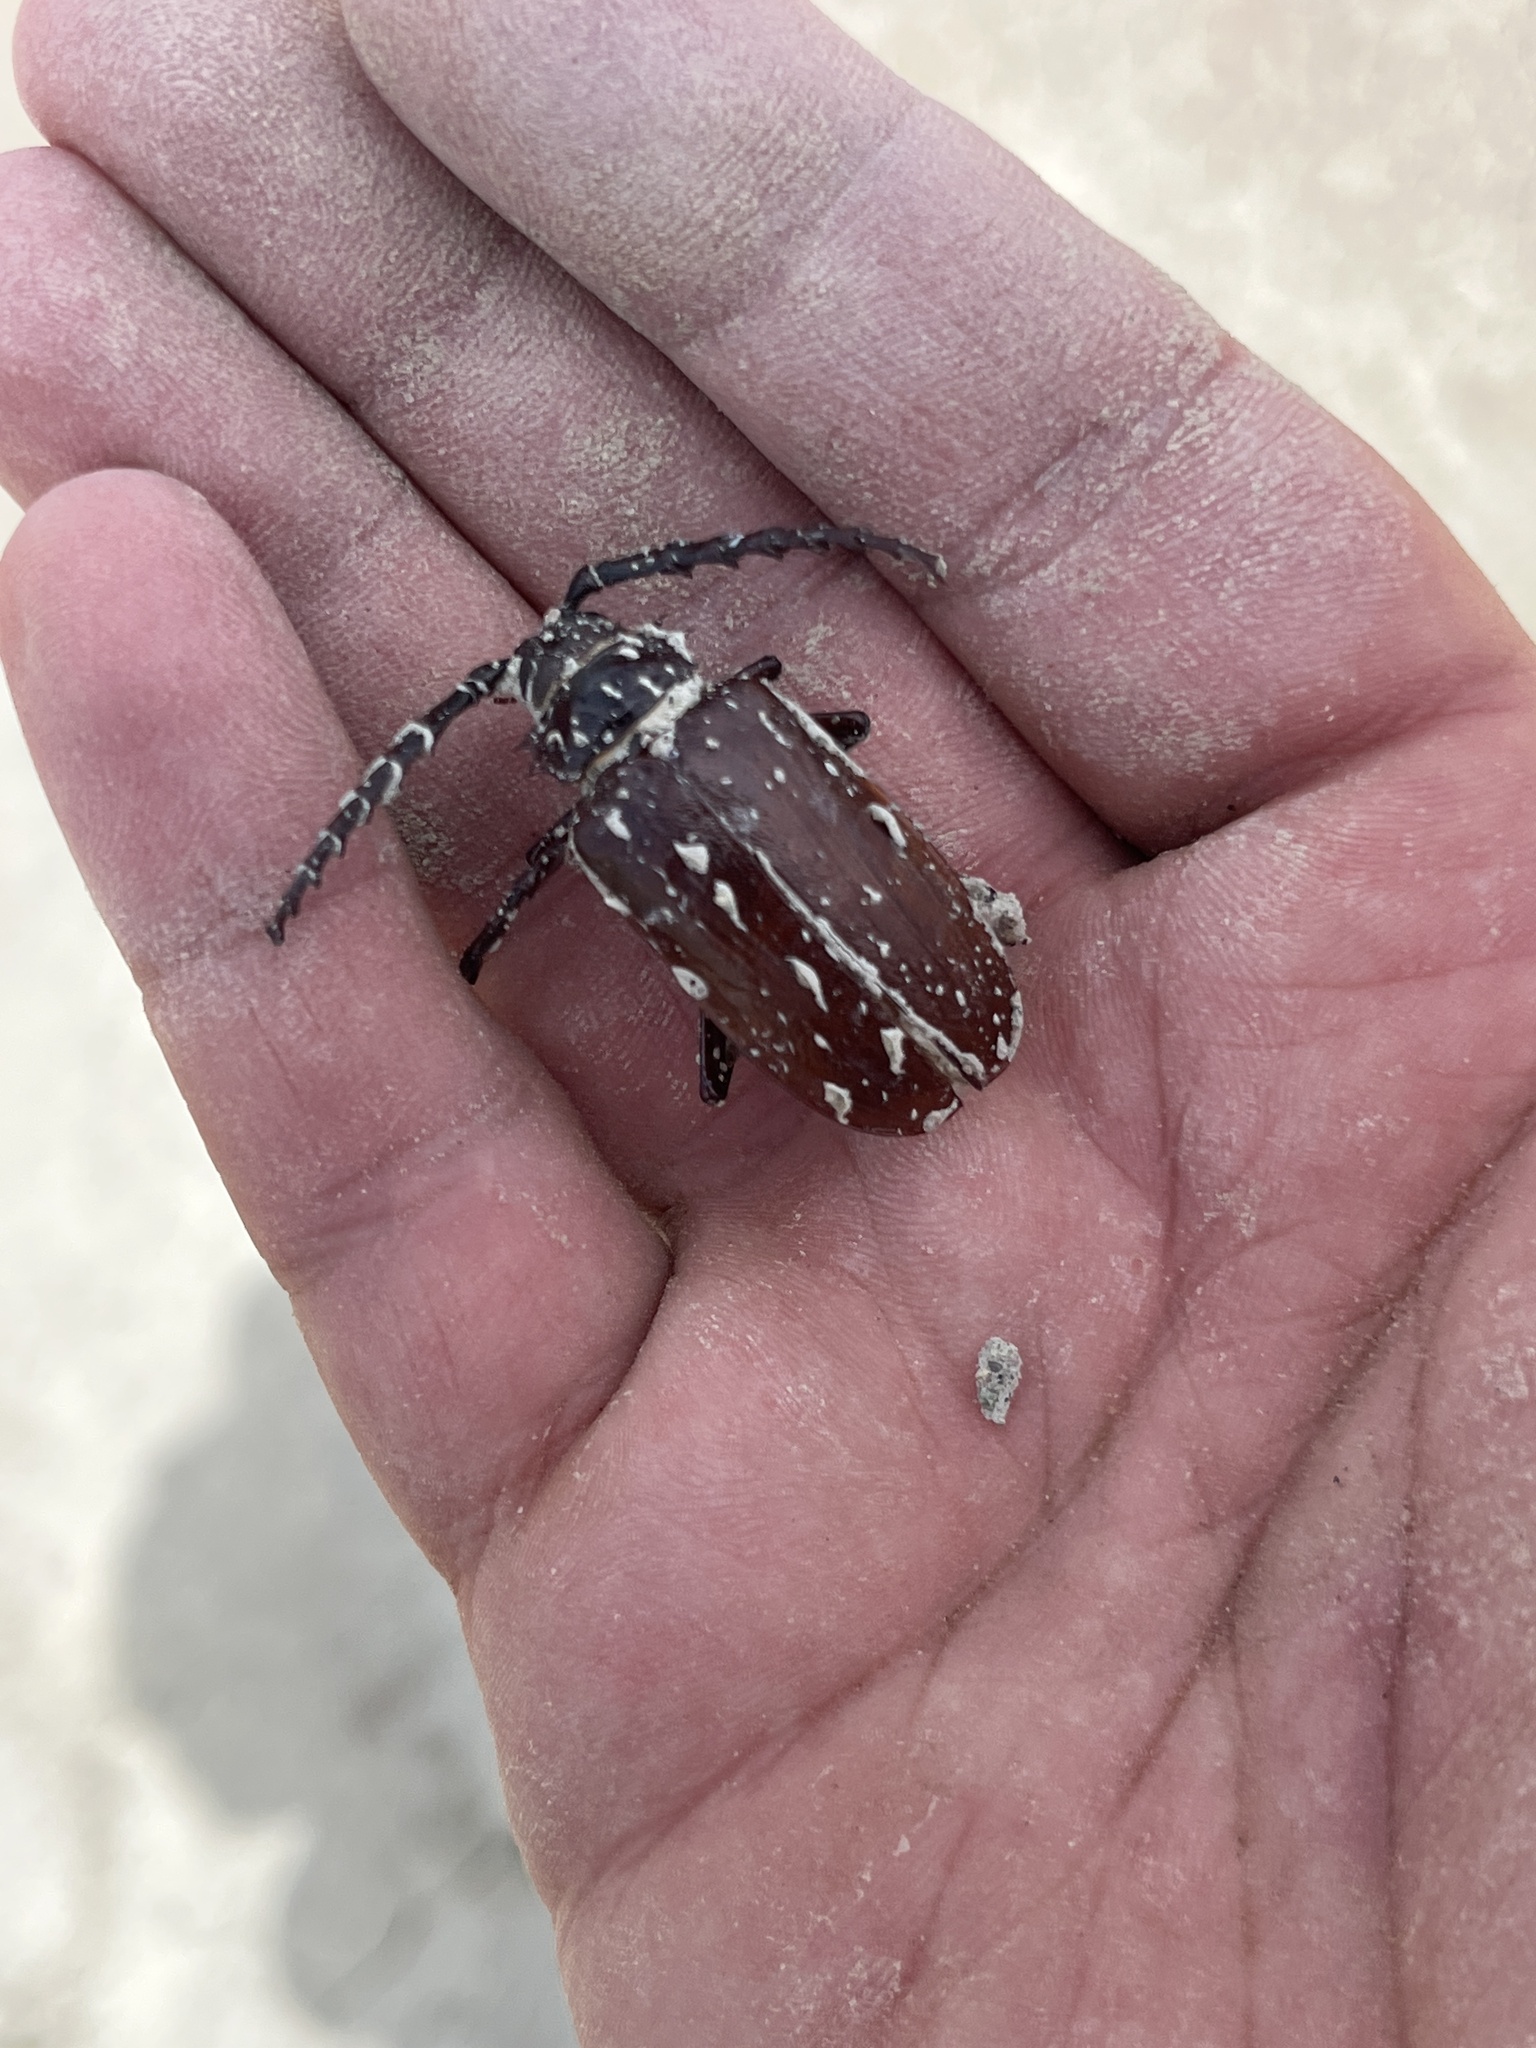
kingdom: Animalia
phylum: Arthropoda
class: Insecta
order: Coleoptera
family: Cerambycidae
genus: Prionus
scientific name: Prionus californicus
